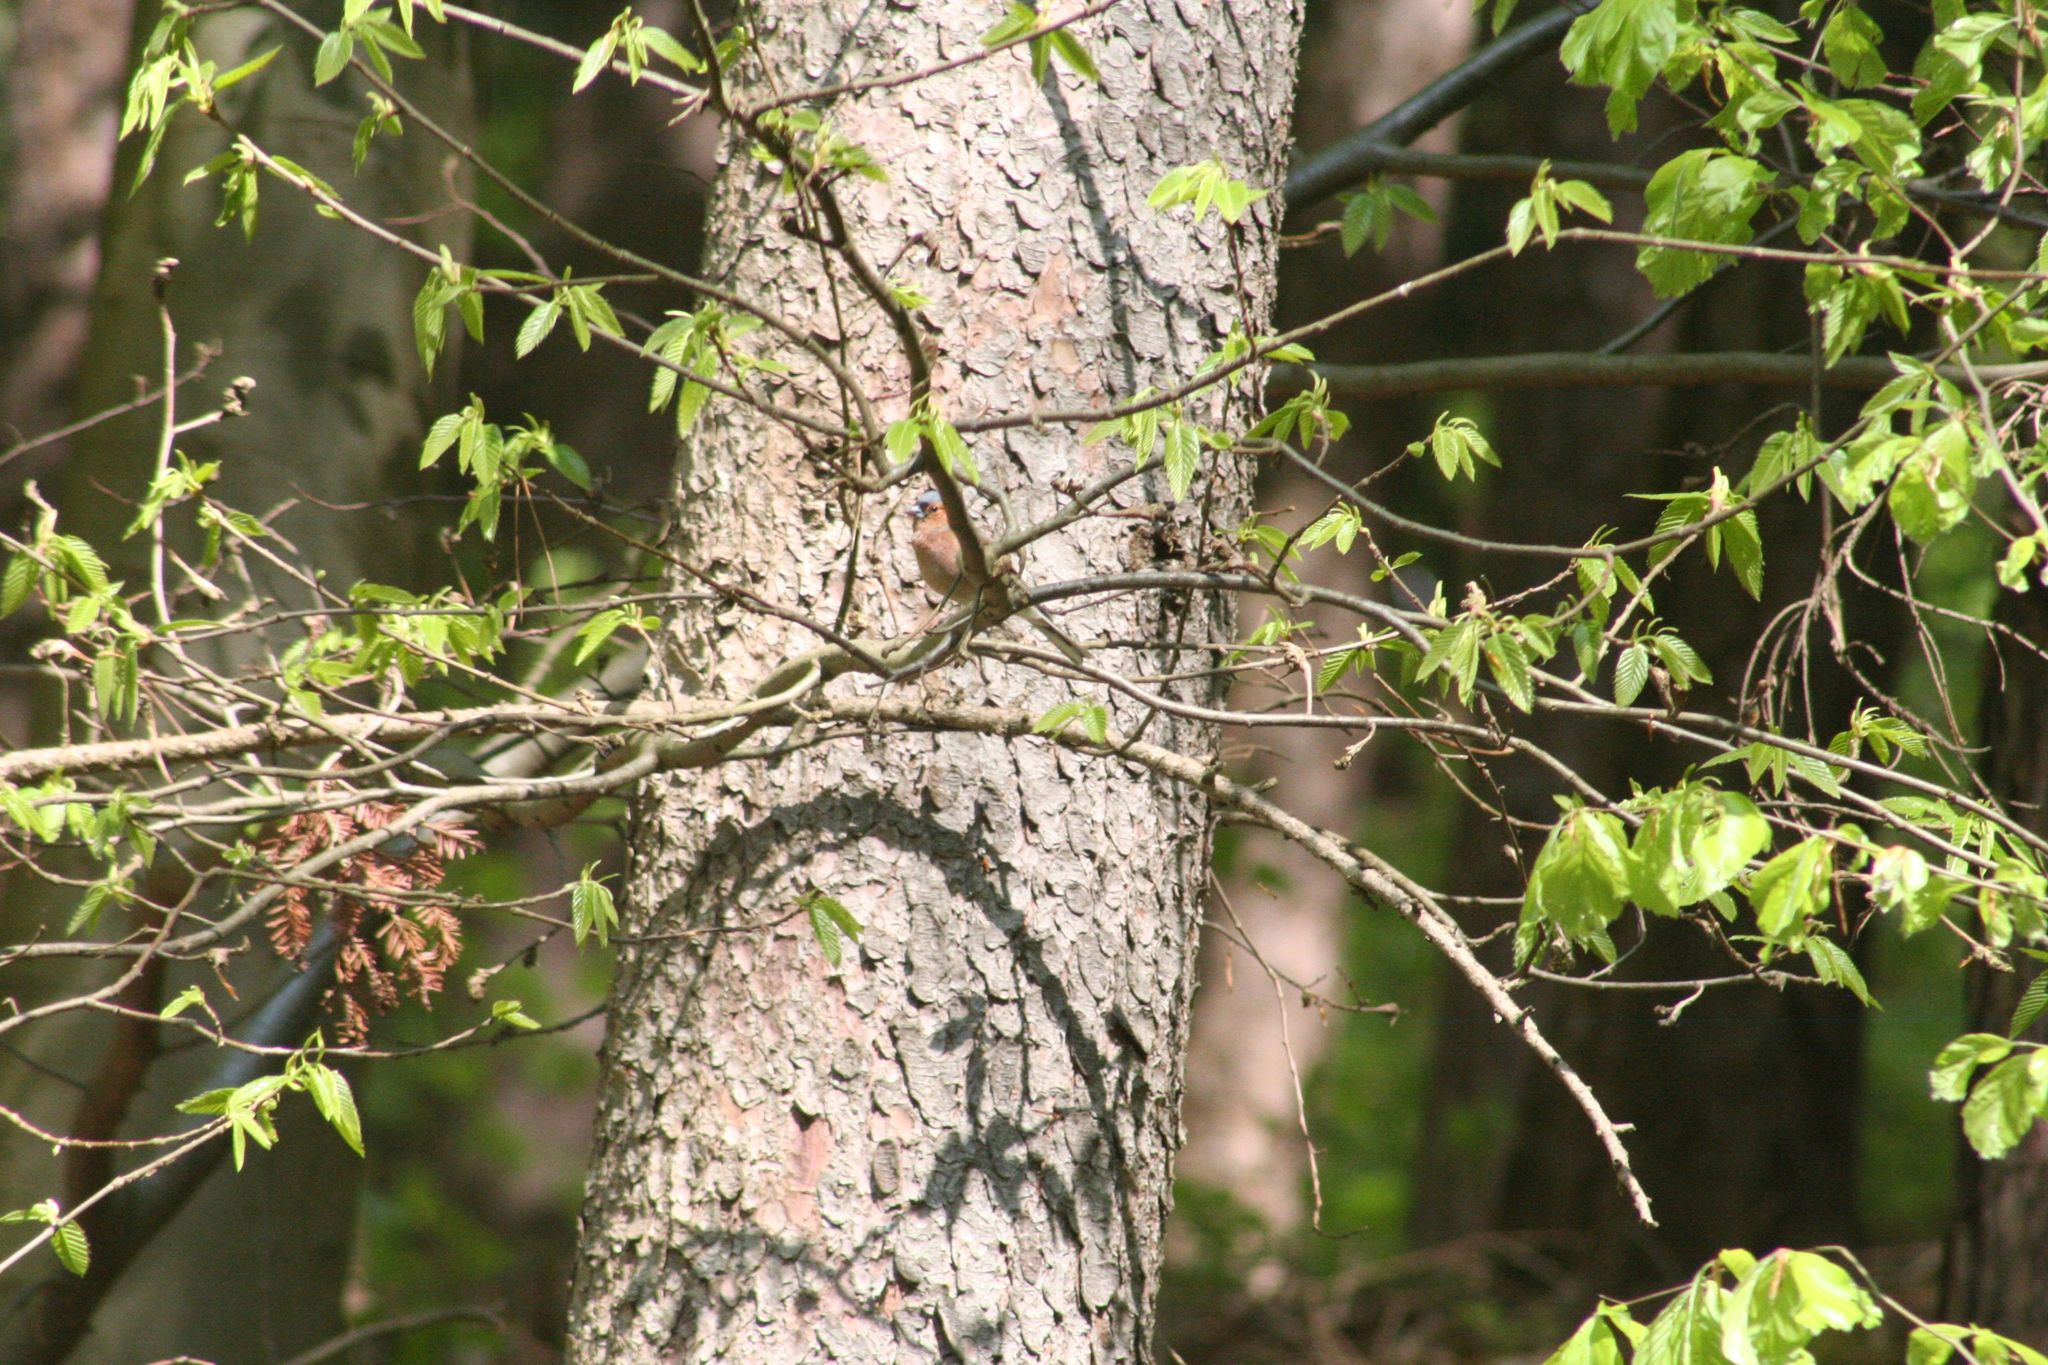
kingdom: Animalia
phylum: Chordata
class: Aves
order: Passeriformes
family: Fringillidae
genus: Fringilla
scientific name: Fringilla coelebs
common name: Common chaffinch
